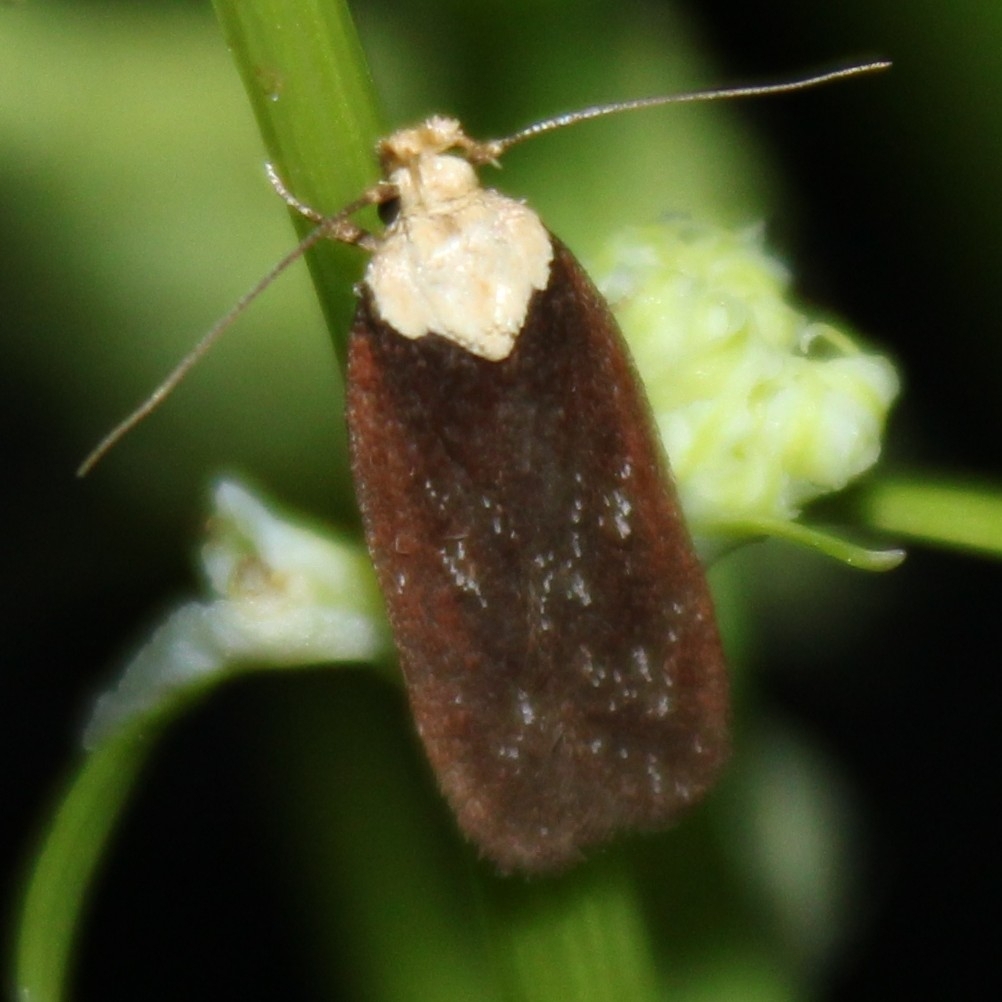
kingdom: Animalia
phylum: Arthropoda
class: Insecta
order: Lepidoptera
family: Depressariidae
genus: Depressaria
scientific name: Depressaria depressana
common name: Lost flat-body
